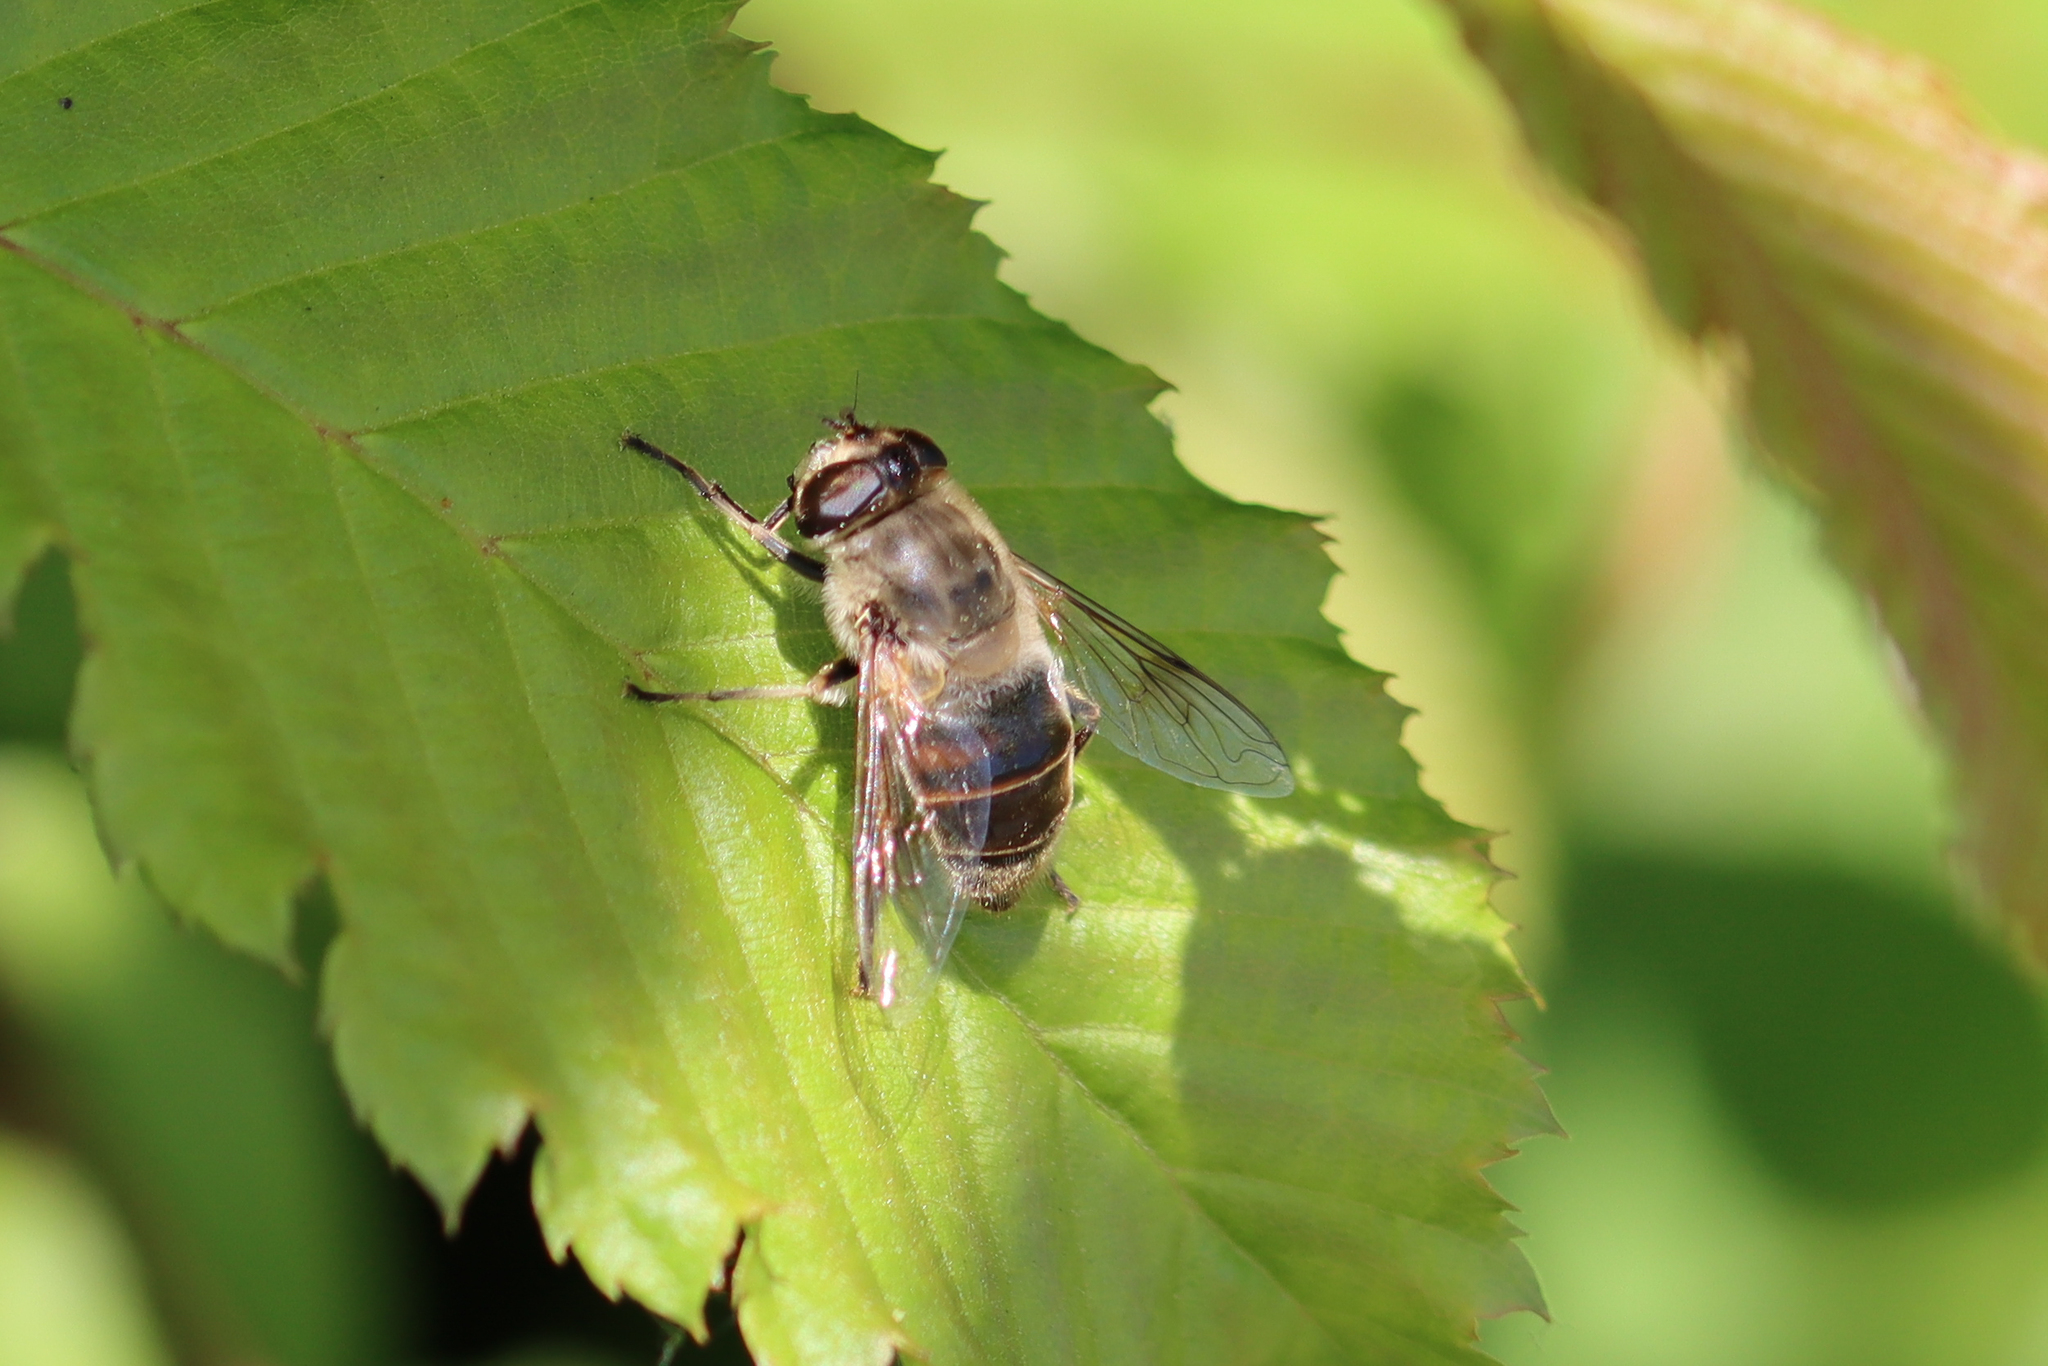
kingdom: Animalia
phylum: Arthropoda
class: Insecta
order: Diptera
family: Syrphidae
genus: Eristalis
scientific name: Eristalis tenax
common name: Drone fly
